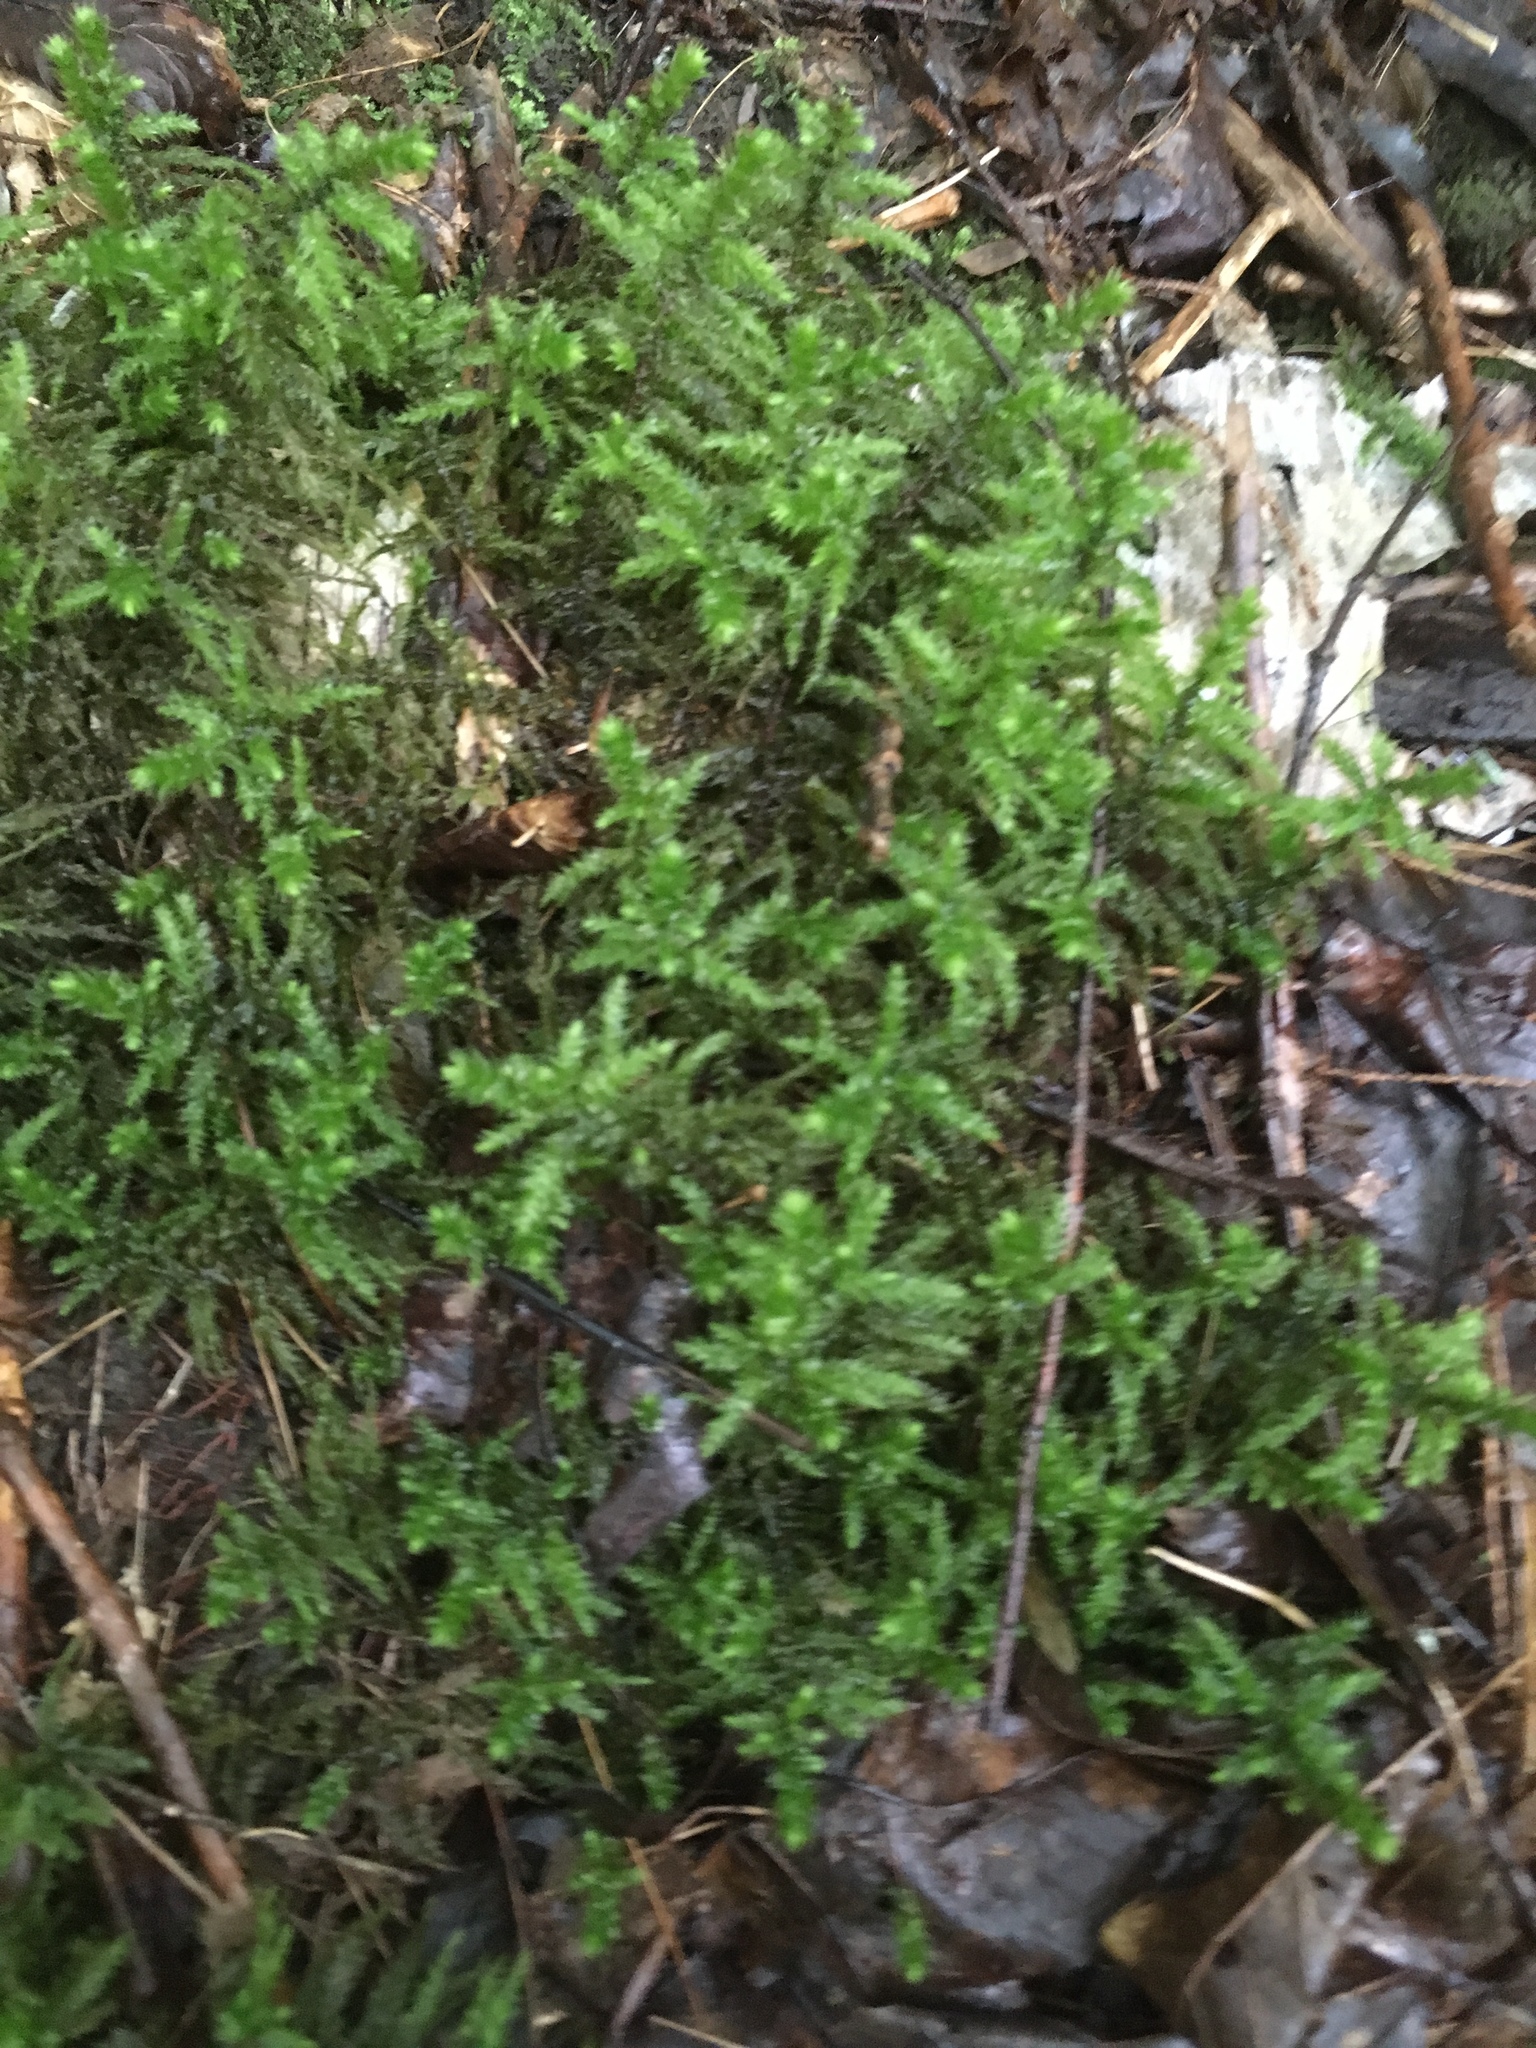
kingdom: Plantae
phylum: Bryophyta
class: Bryopsida
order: Hypnales
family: Hylocomiaceae
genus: Hylocomiadelphus
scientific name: Hylocomiadelphus triquetrus
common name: Rough goose neck moss
